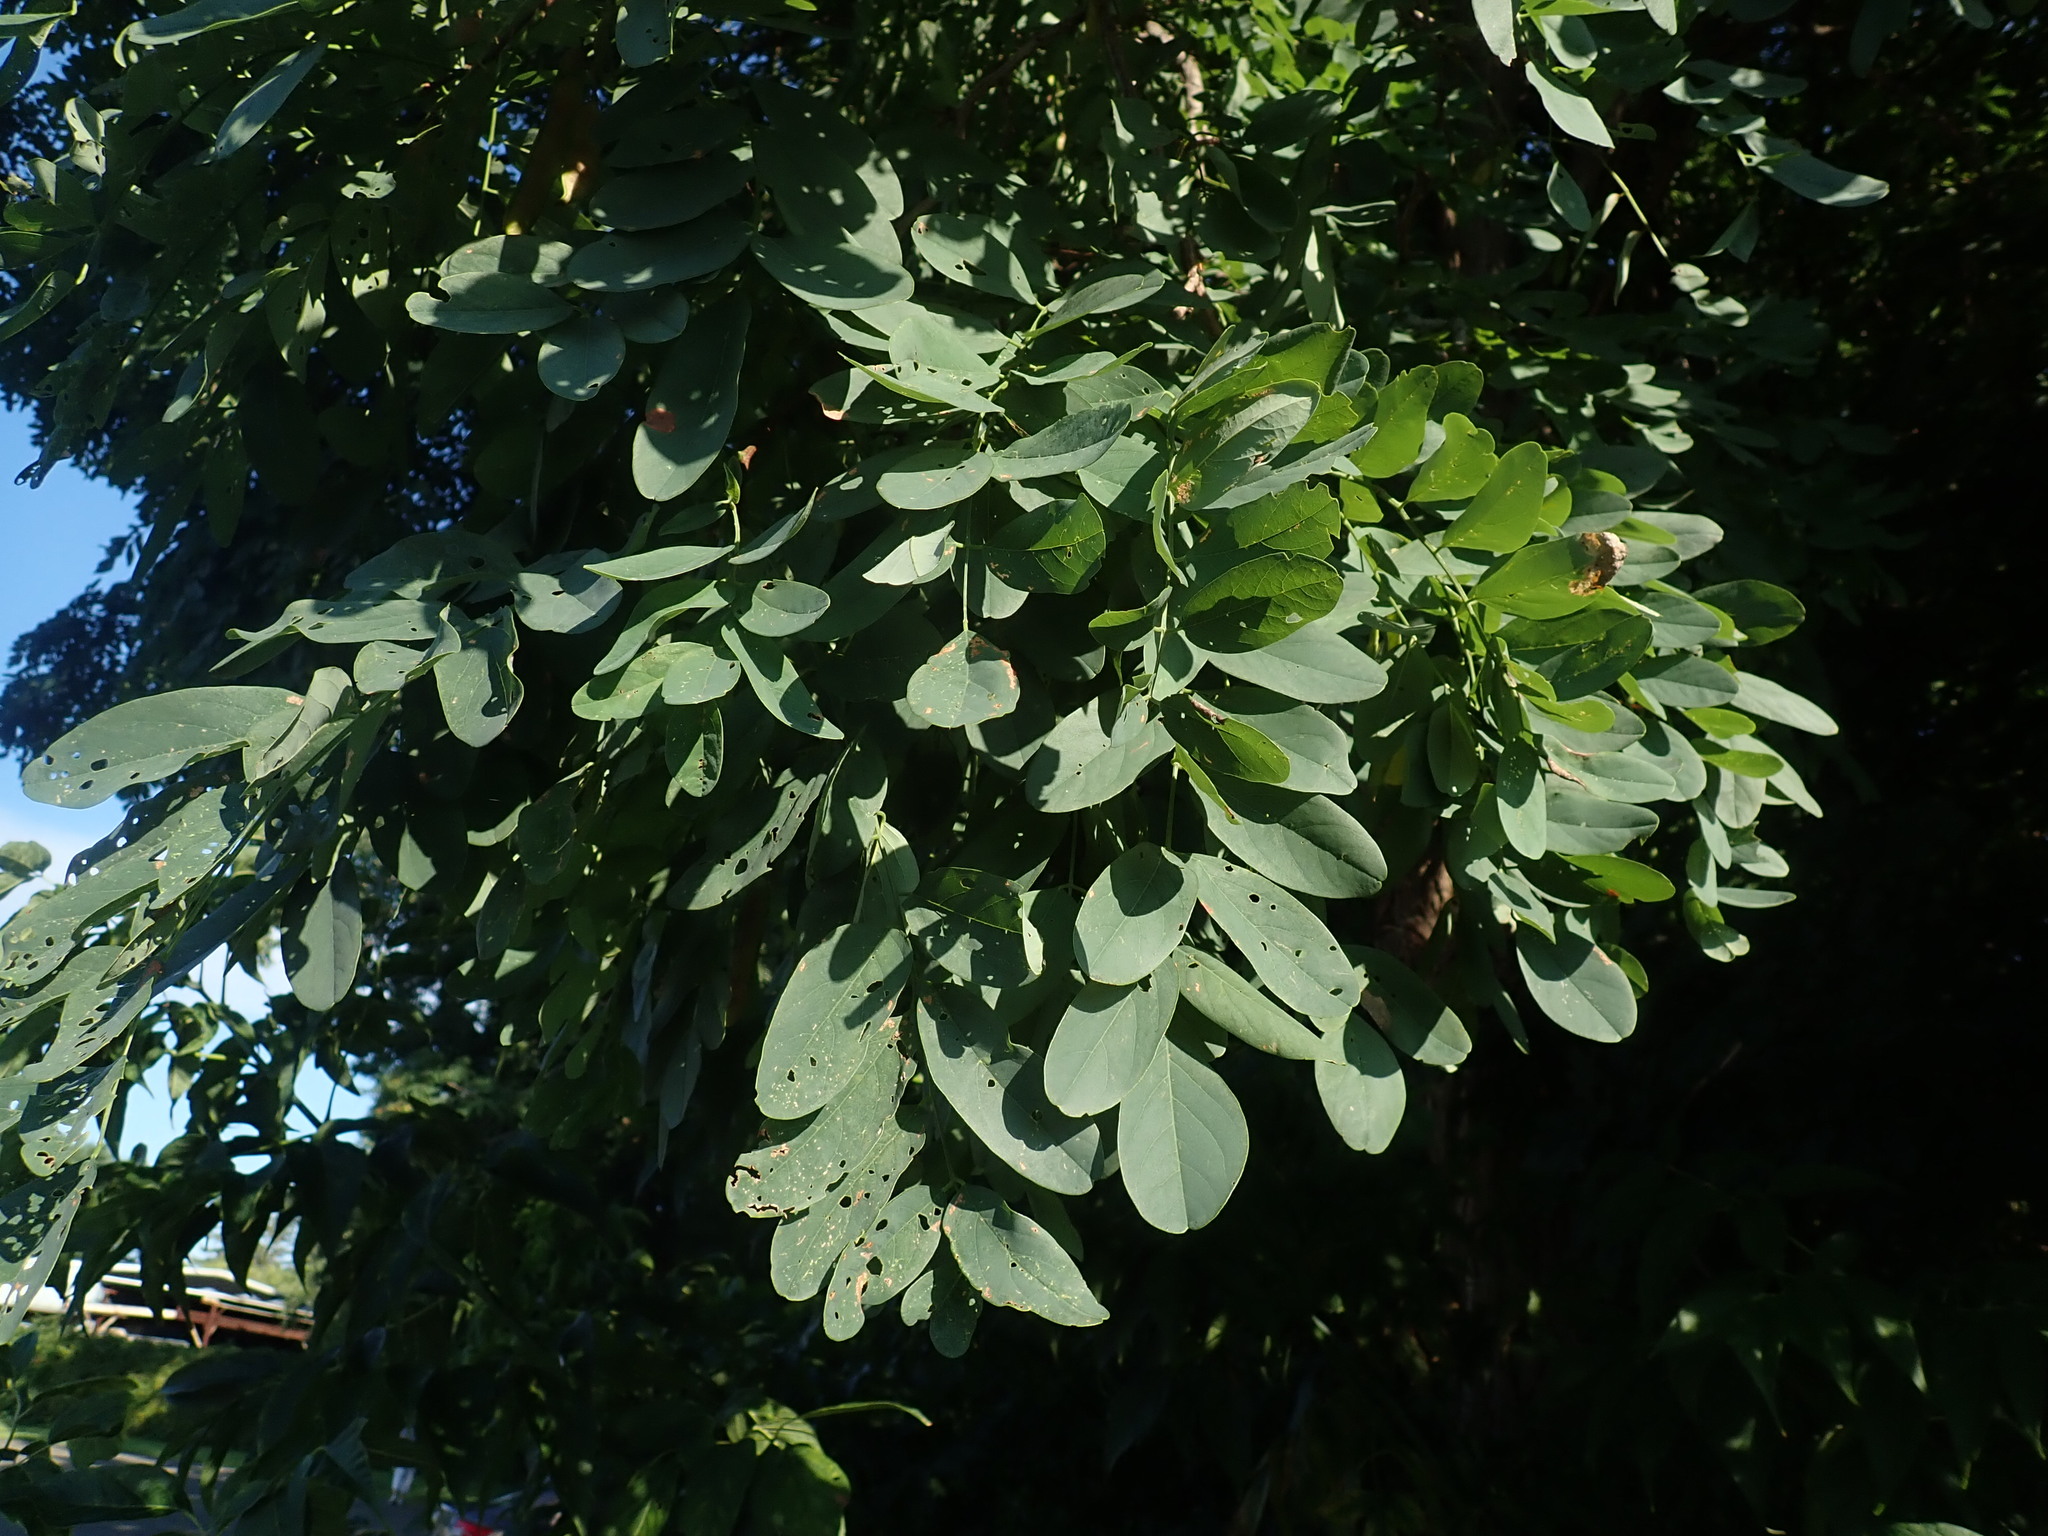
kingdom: Plantae
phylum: Tracheophyta
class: Magnoliopsida
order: Fabales
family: Fabaceae
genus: Robinia
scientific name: Robinia pseudoacacia
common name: Black locust
